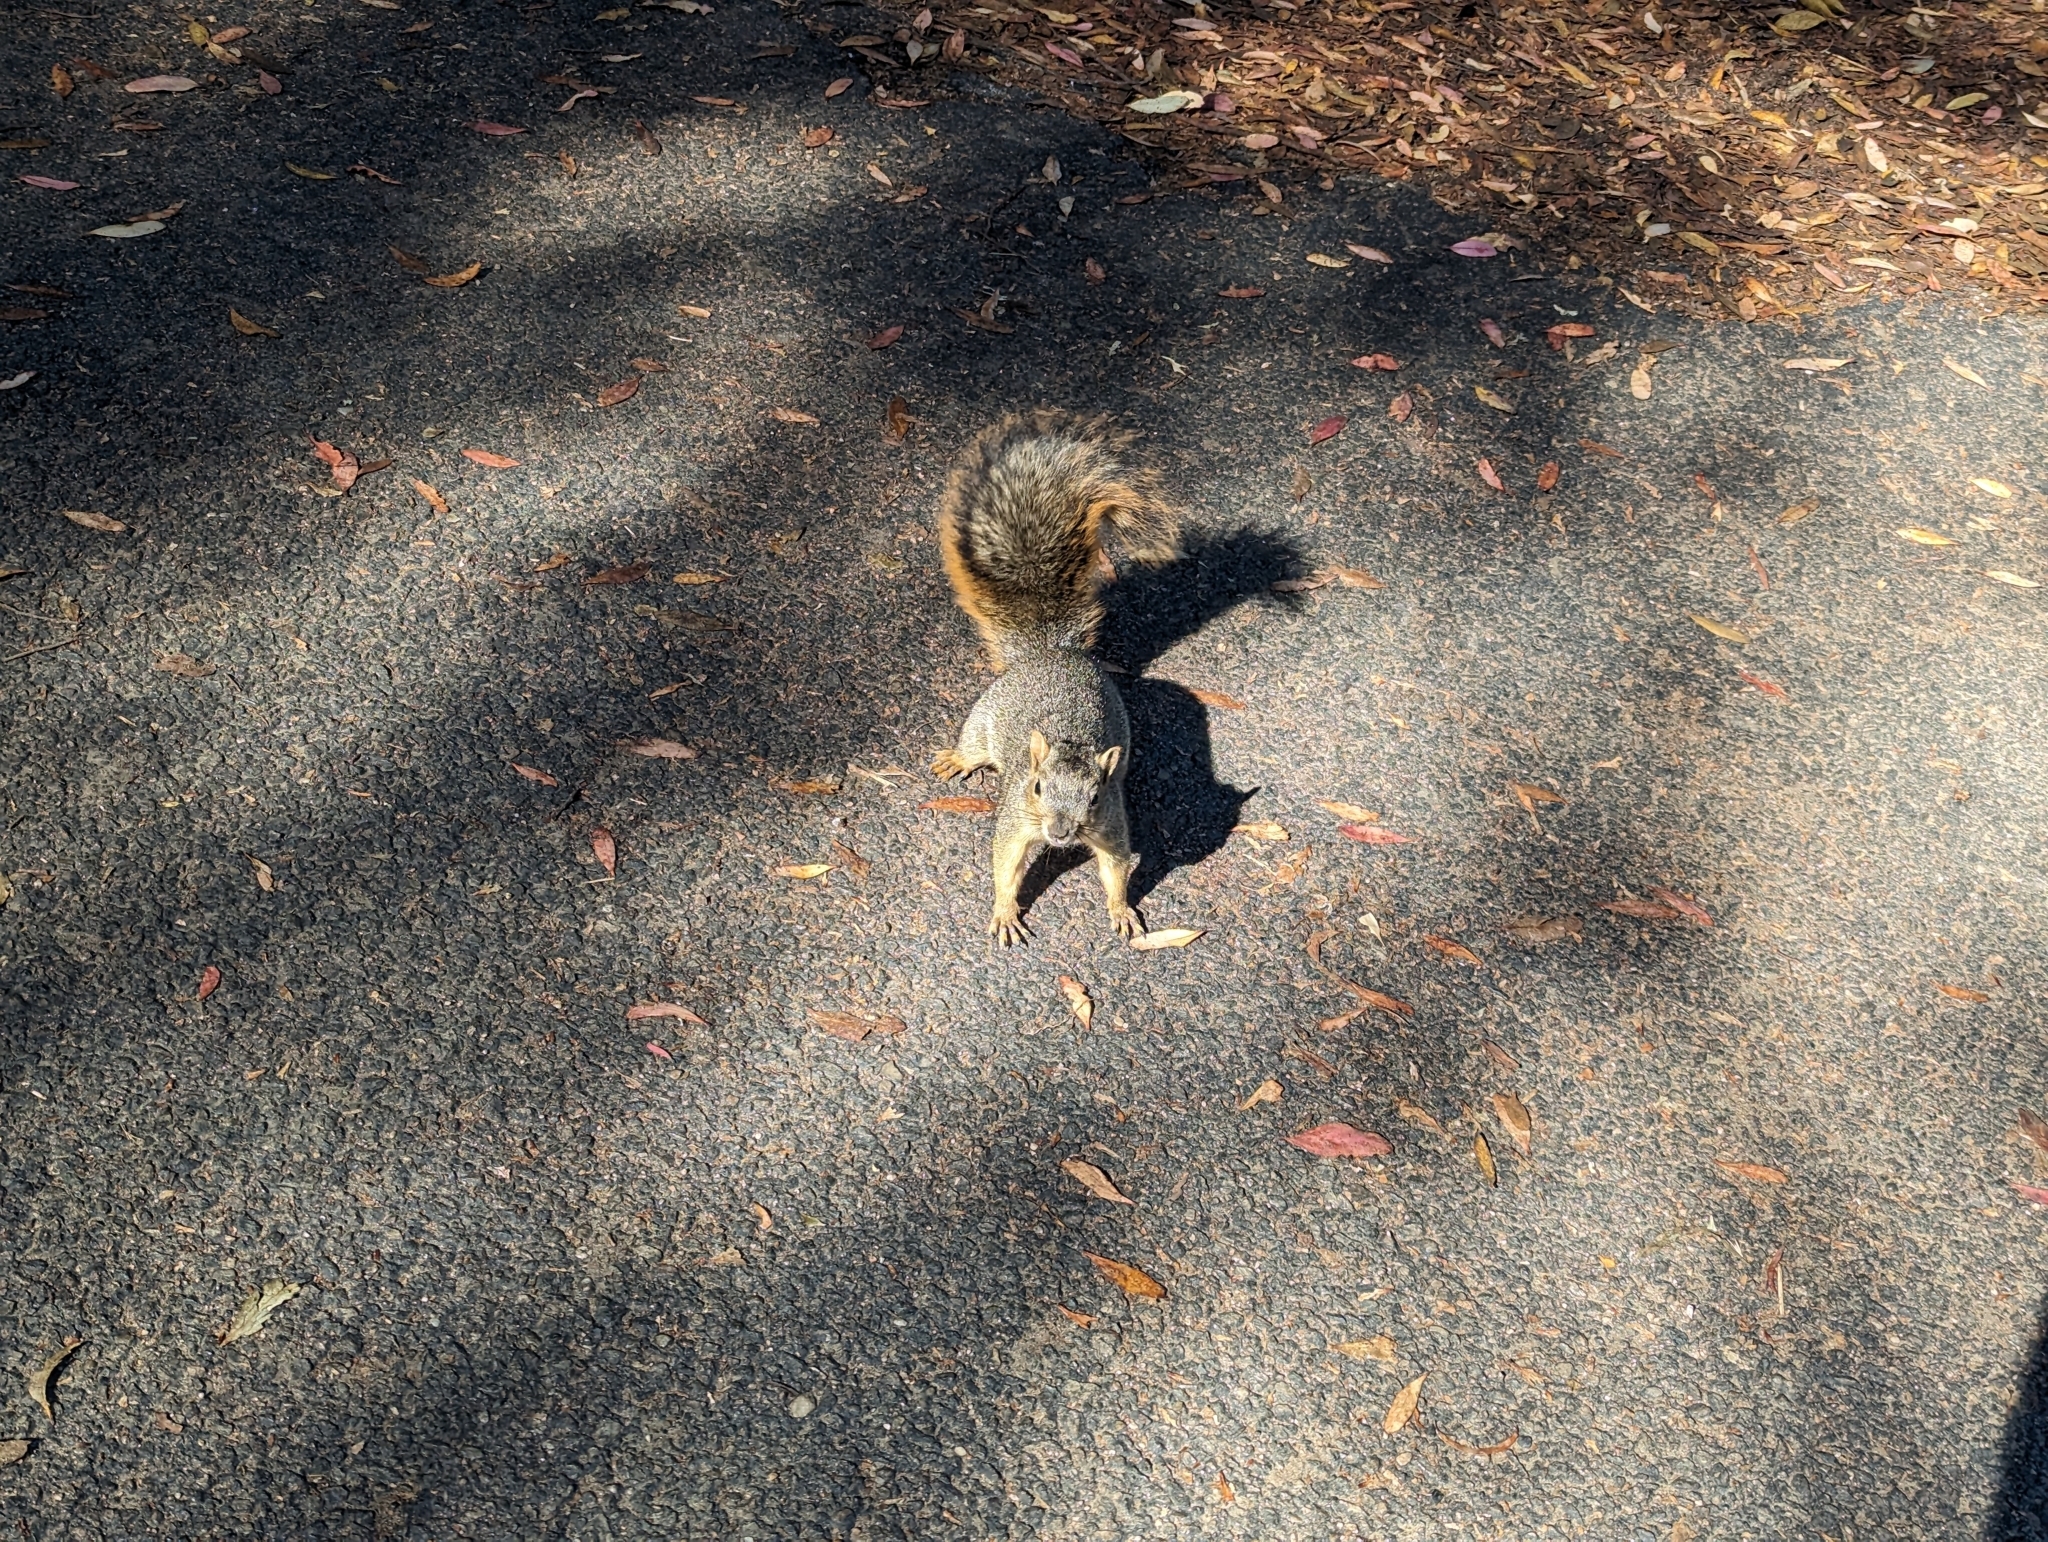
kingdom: Animalia
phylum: Chordata
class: Mammalia
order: Rodentia
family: Sciuridae
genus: Sciurus
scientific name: Sciurus niger
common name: Fox squirrel
